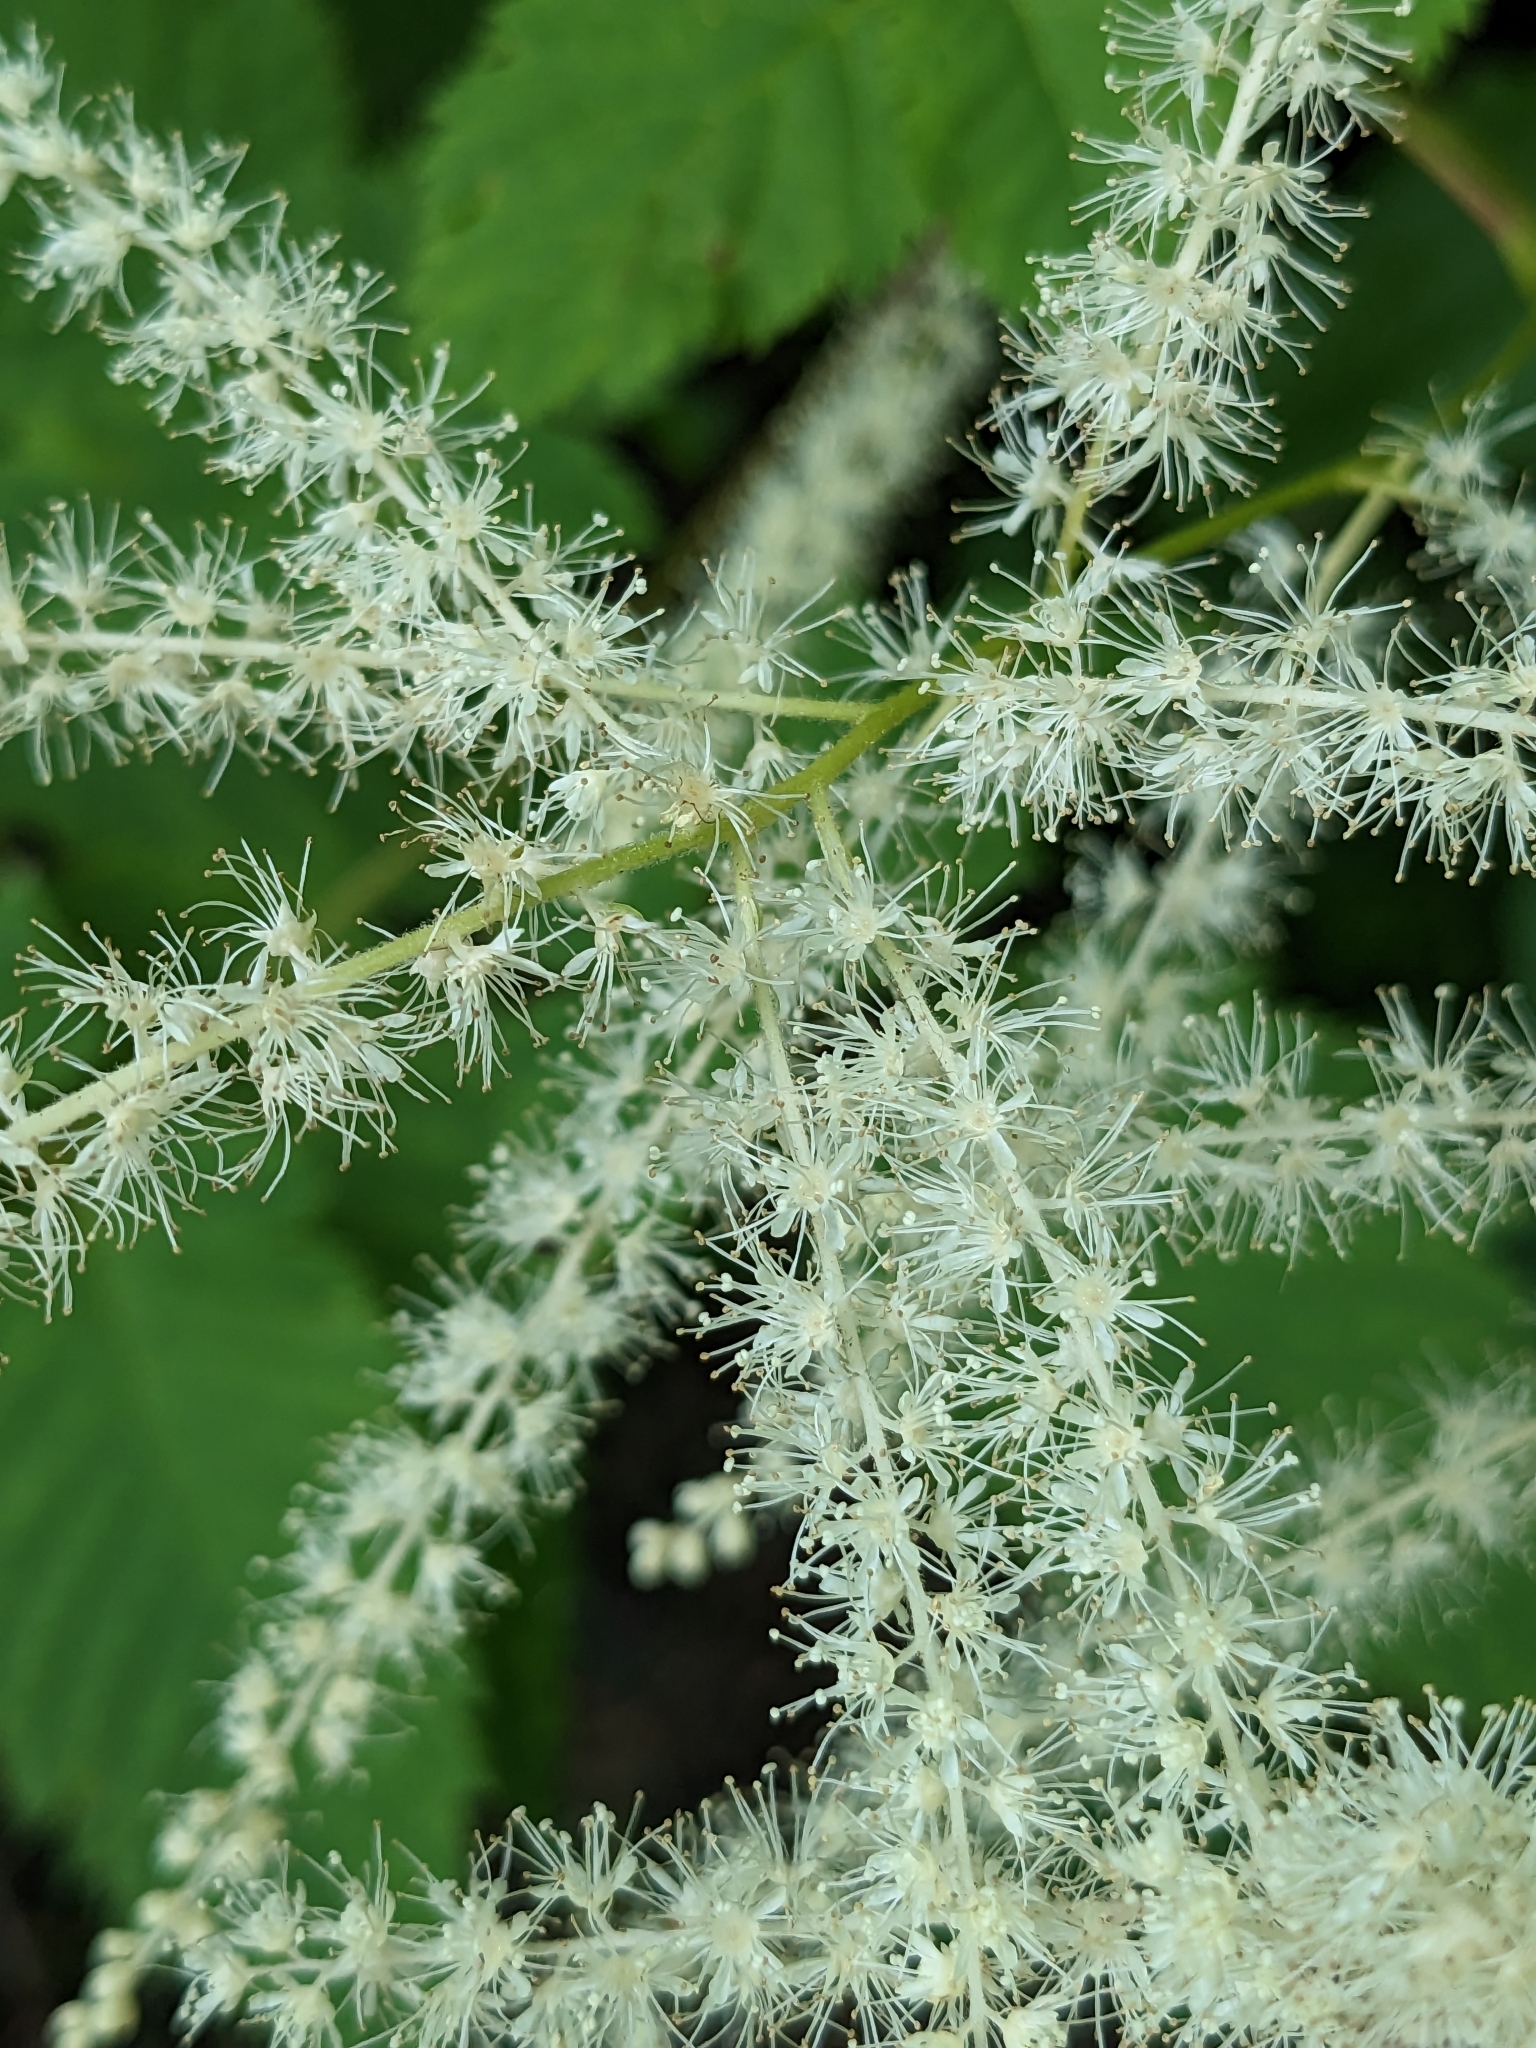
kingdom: Plantae
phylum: Tracheophyta
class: Magnoliopsida
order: Rosales
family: Rosaceae
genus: Aruncus
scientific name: Aruncus dioicus
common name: Buck's-beard
